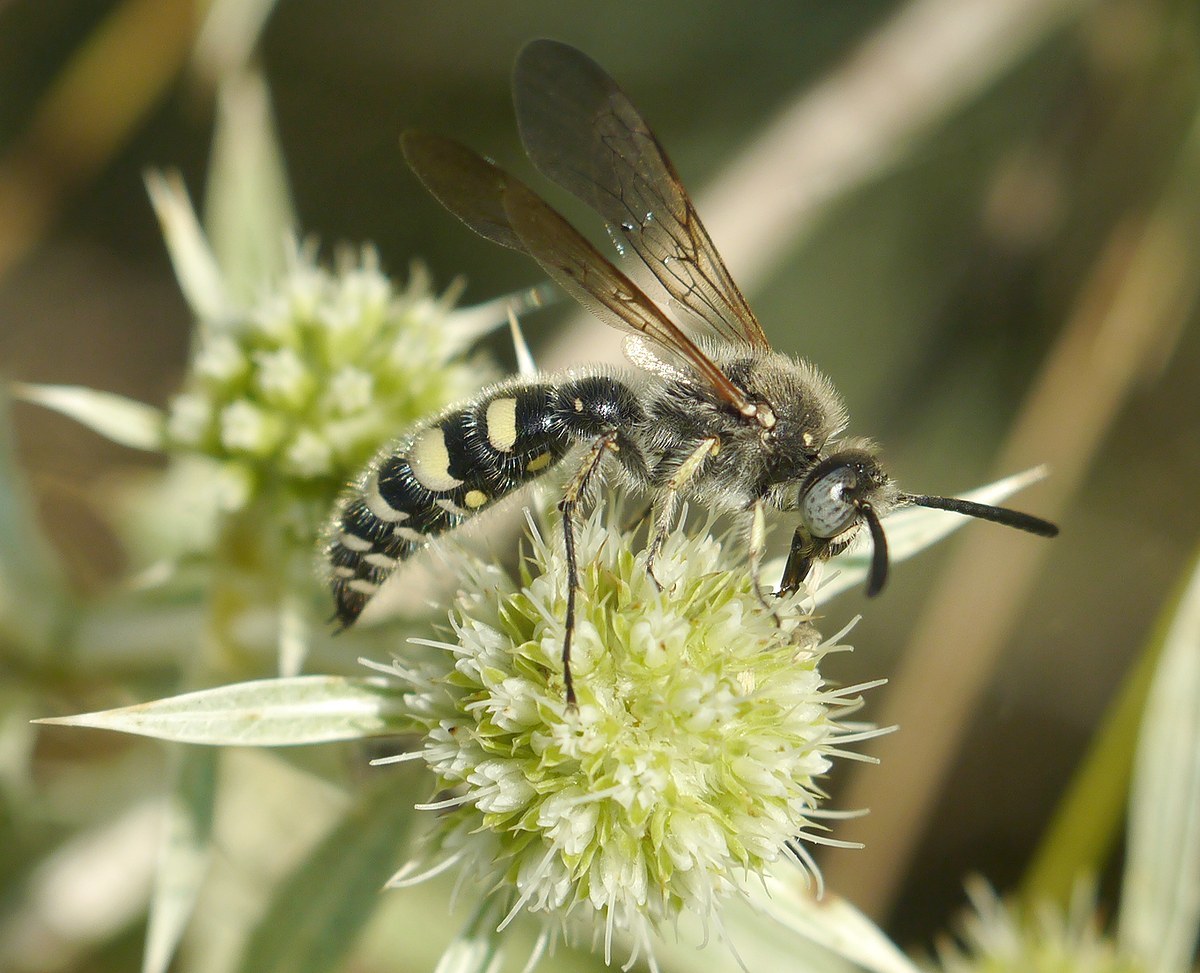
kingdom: Animalia
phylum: Arthropoda
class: Insecta
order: Hymenoptera
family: Vespidae
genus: Vespa
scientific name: Vespa sexmaculata
